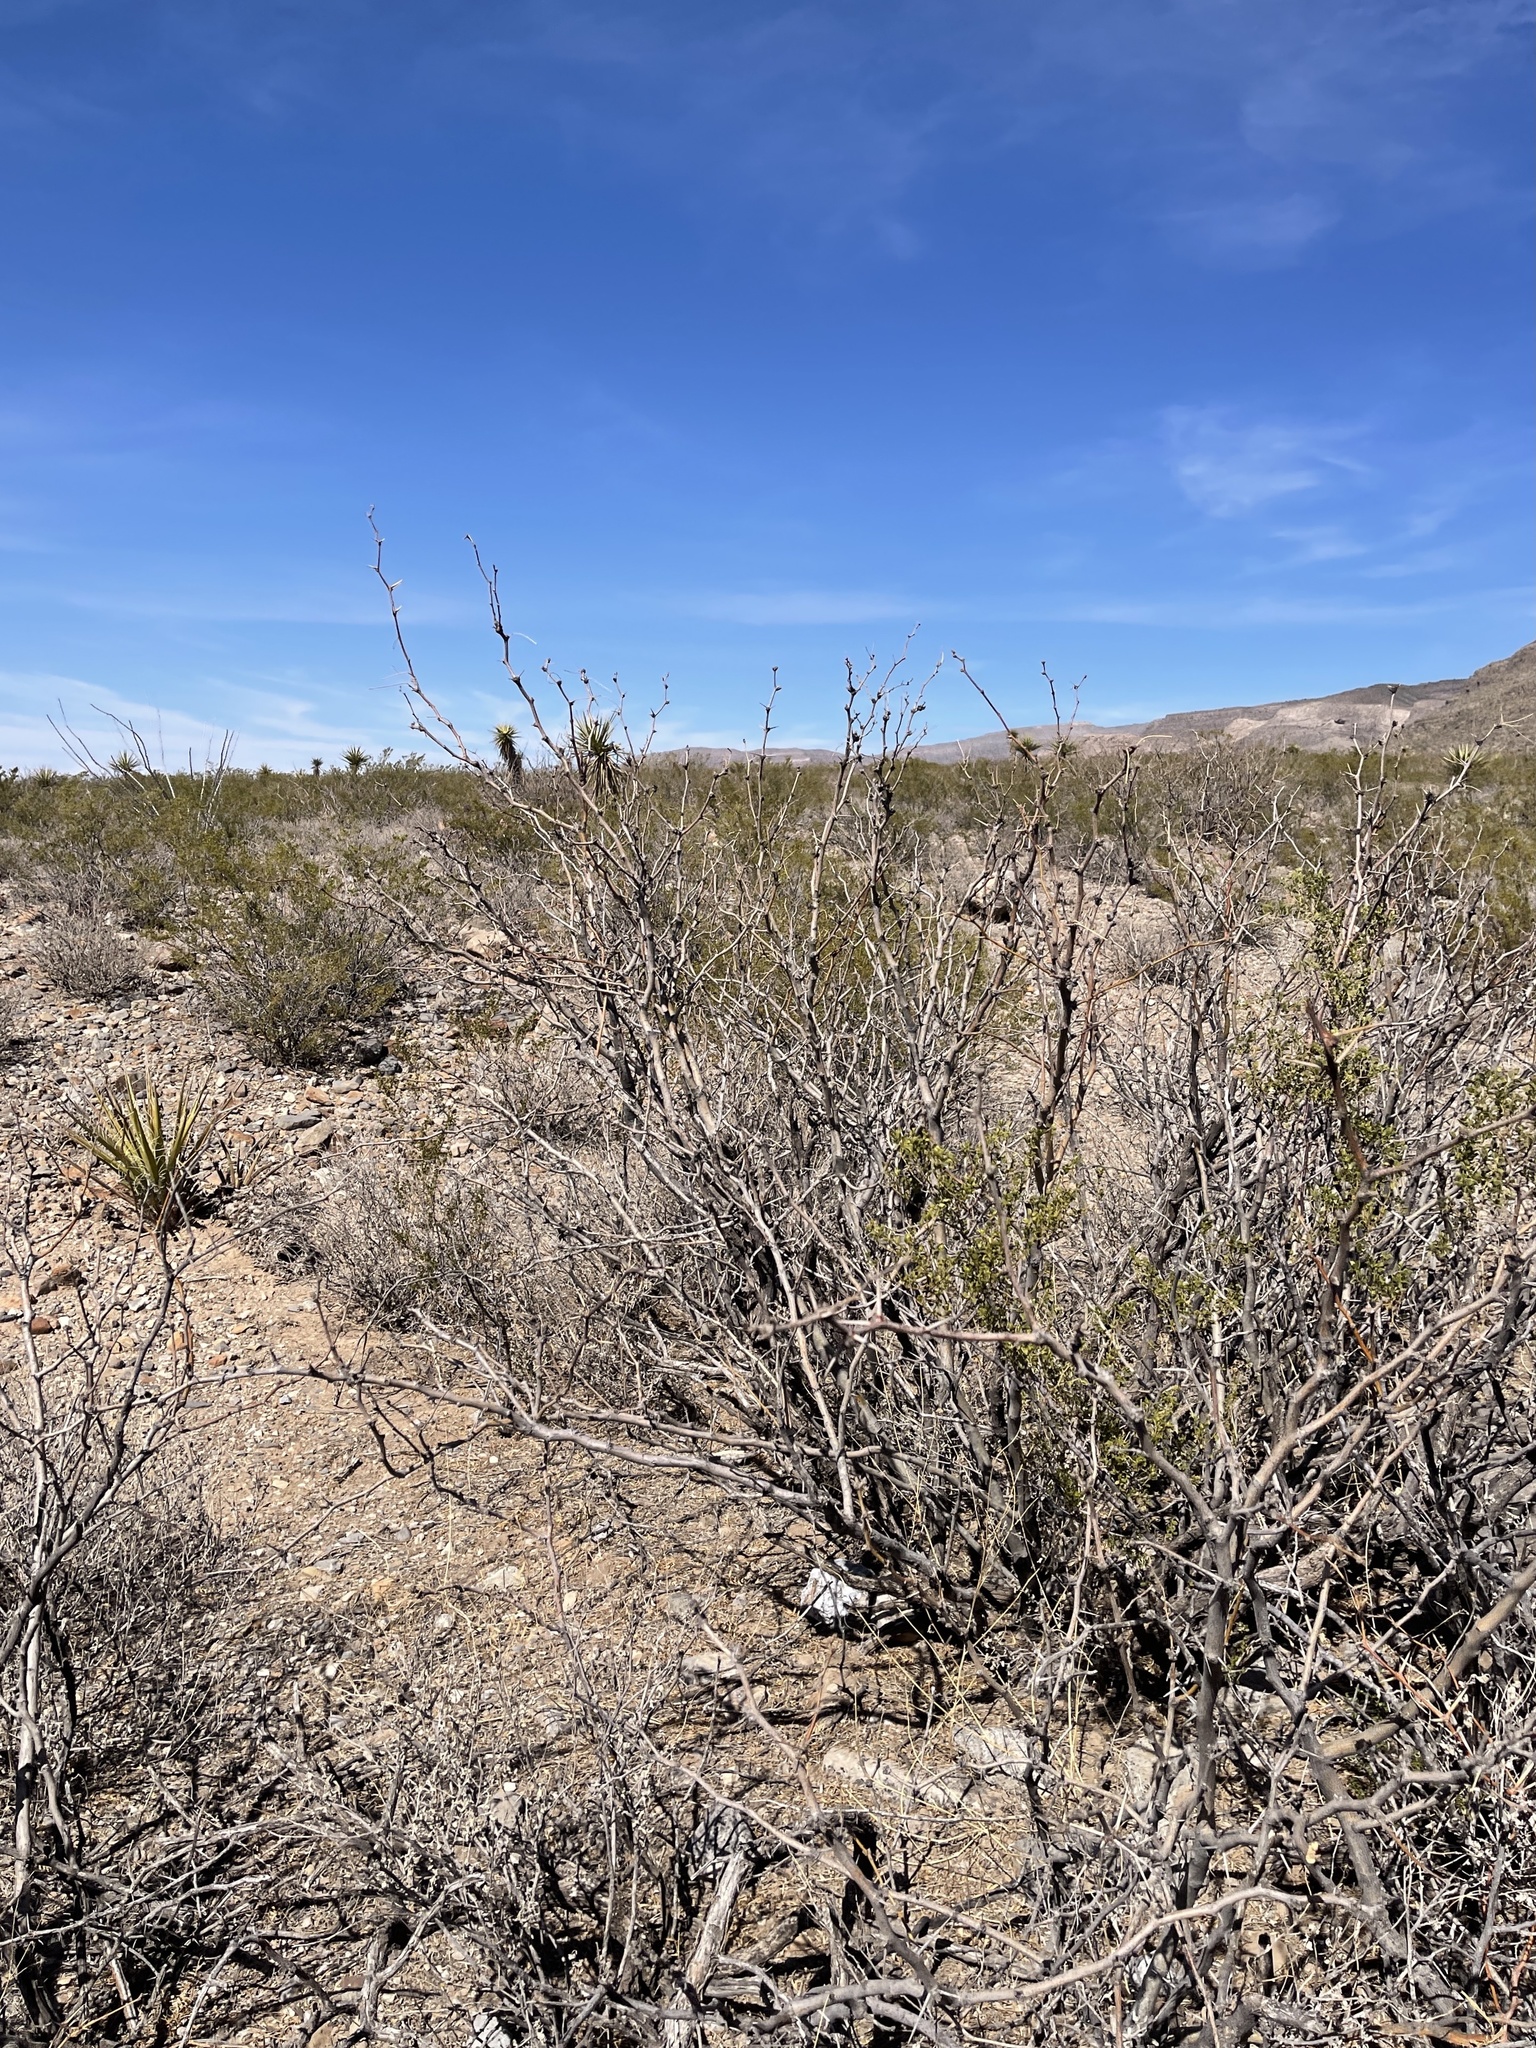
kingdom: Plantae
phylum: Tracheophyta
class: Magnoliopsida
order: Fabales
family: Fabaceae
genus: Prosopis
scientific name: Prosopis glandulosa
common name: Honey mesquite
